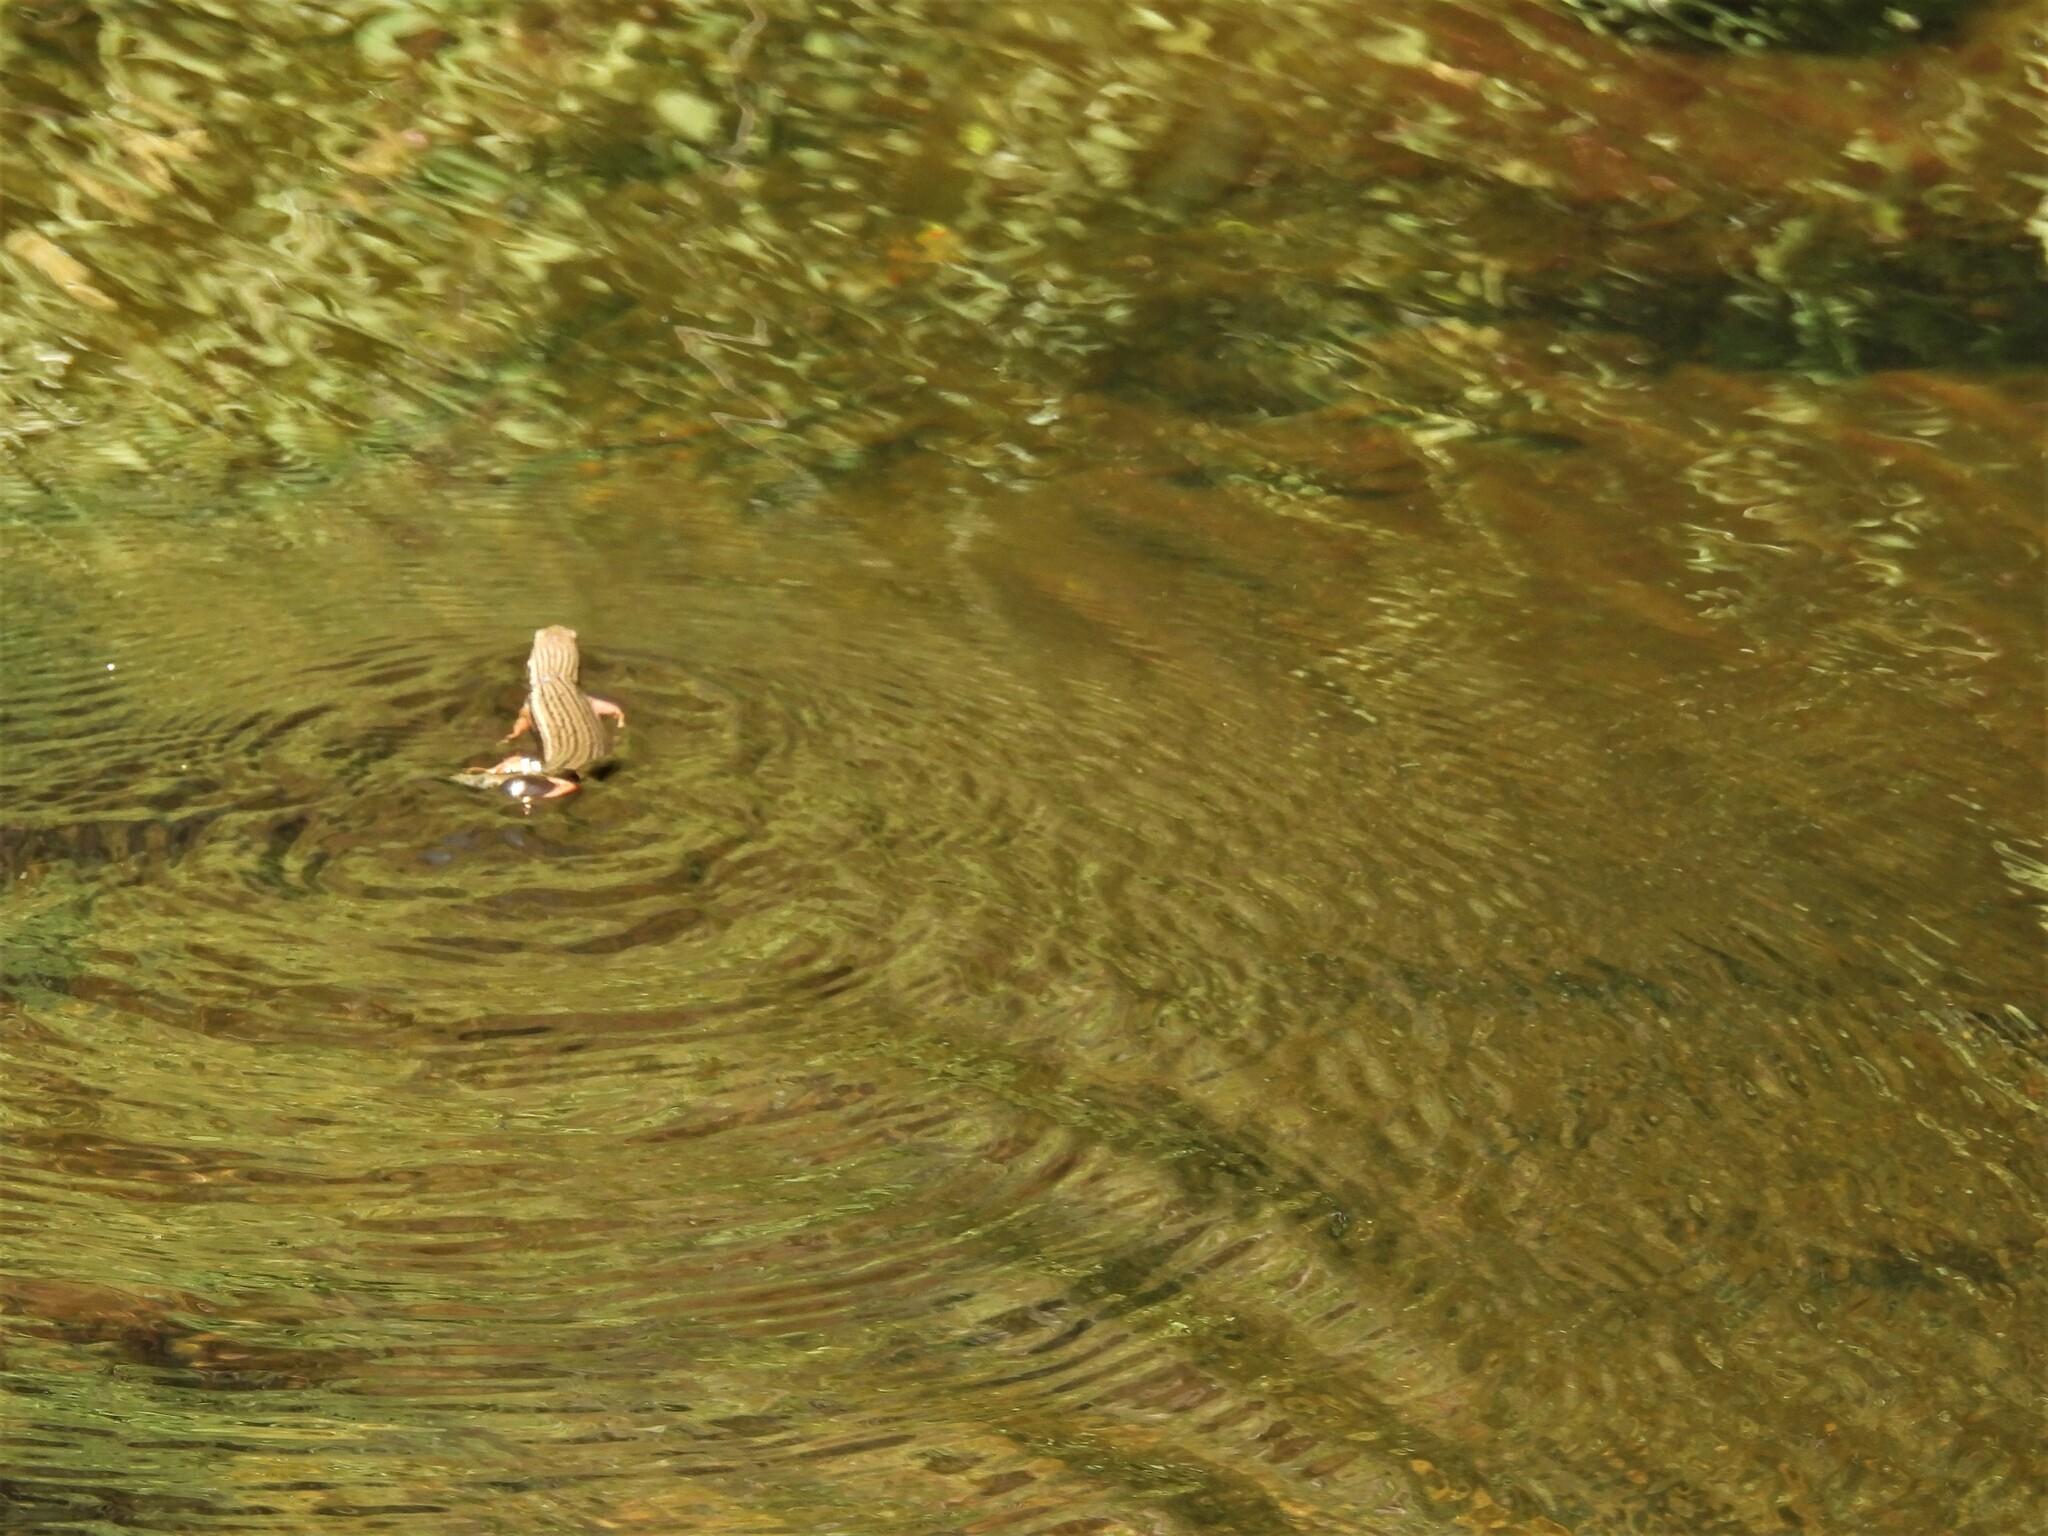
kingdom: Animalia
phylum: Chordata
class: Squamata
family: Scincidae
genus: Trachylepis
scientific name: Trachylepis homalocephala
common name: Red-sided skink
